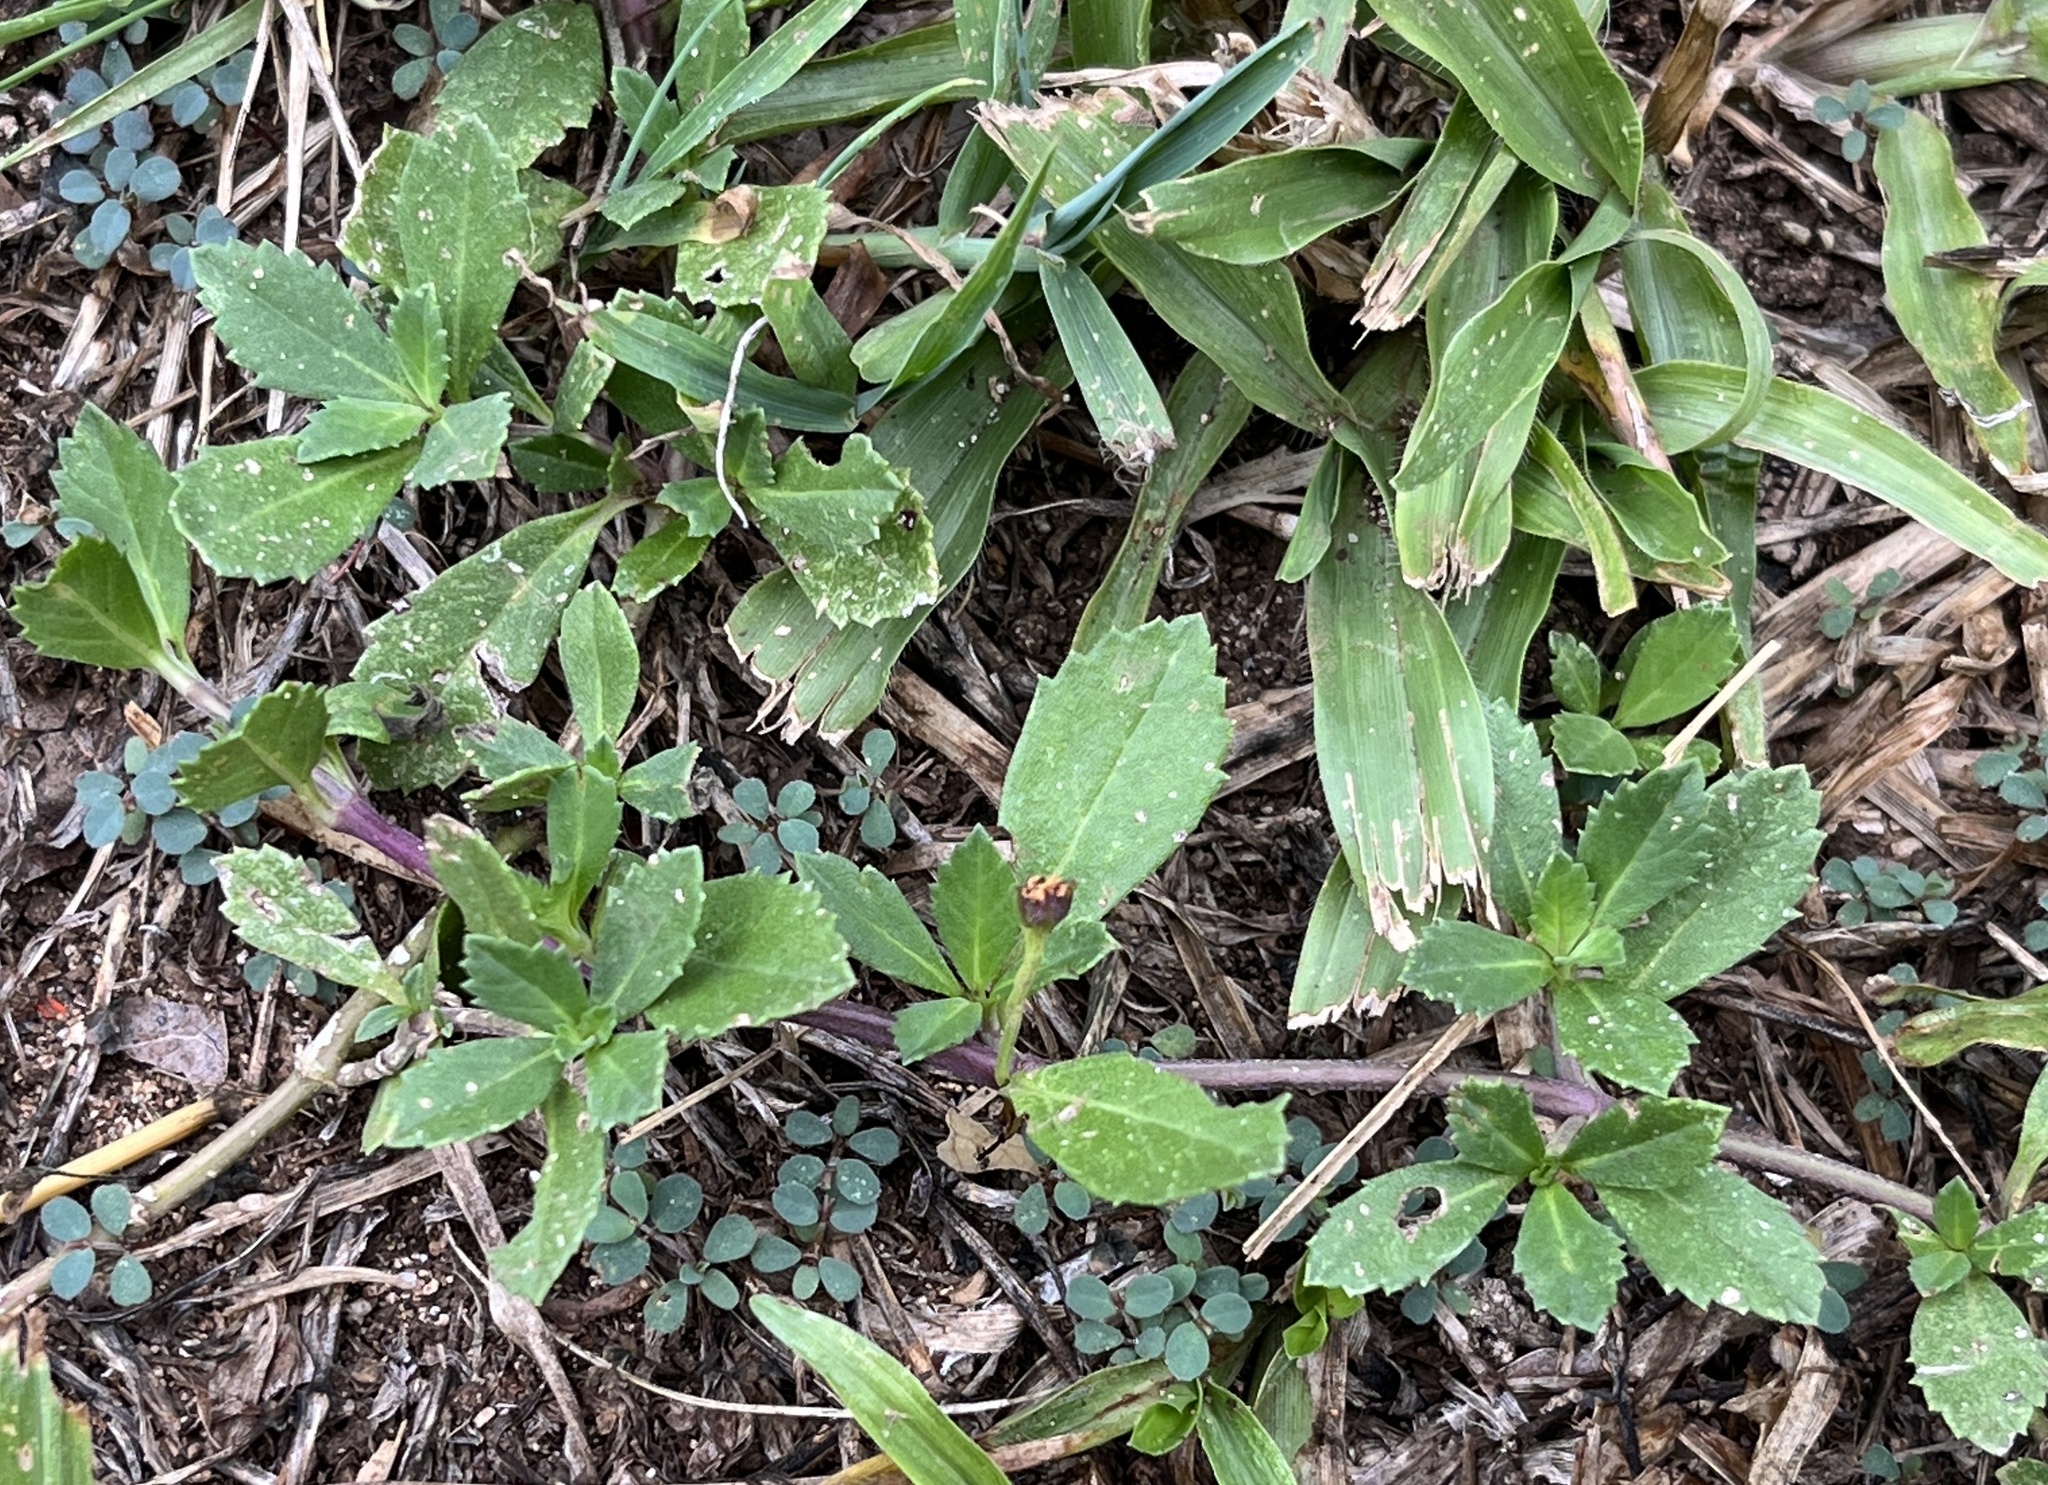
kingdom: Plantae
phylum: Tracheophyta
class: Magnoliopsida
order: Lamiales
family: Verbenaceae
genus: Phyla
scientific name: Phyla nodiflora
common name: Frogfruit
